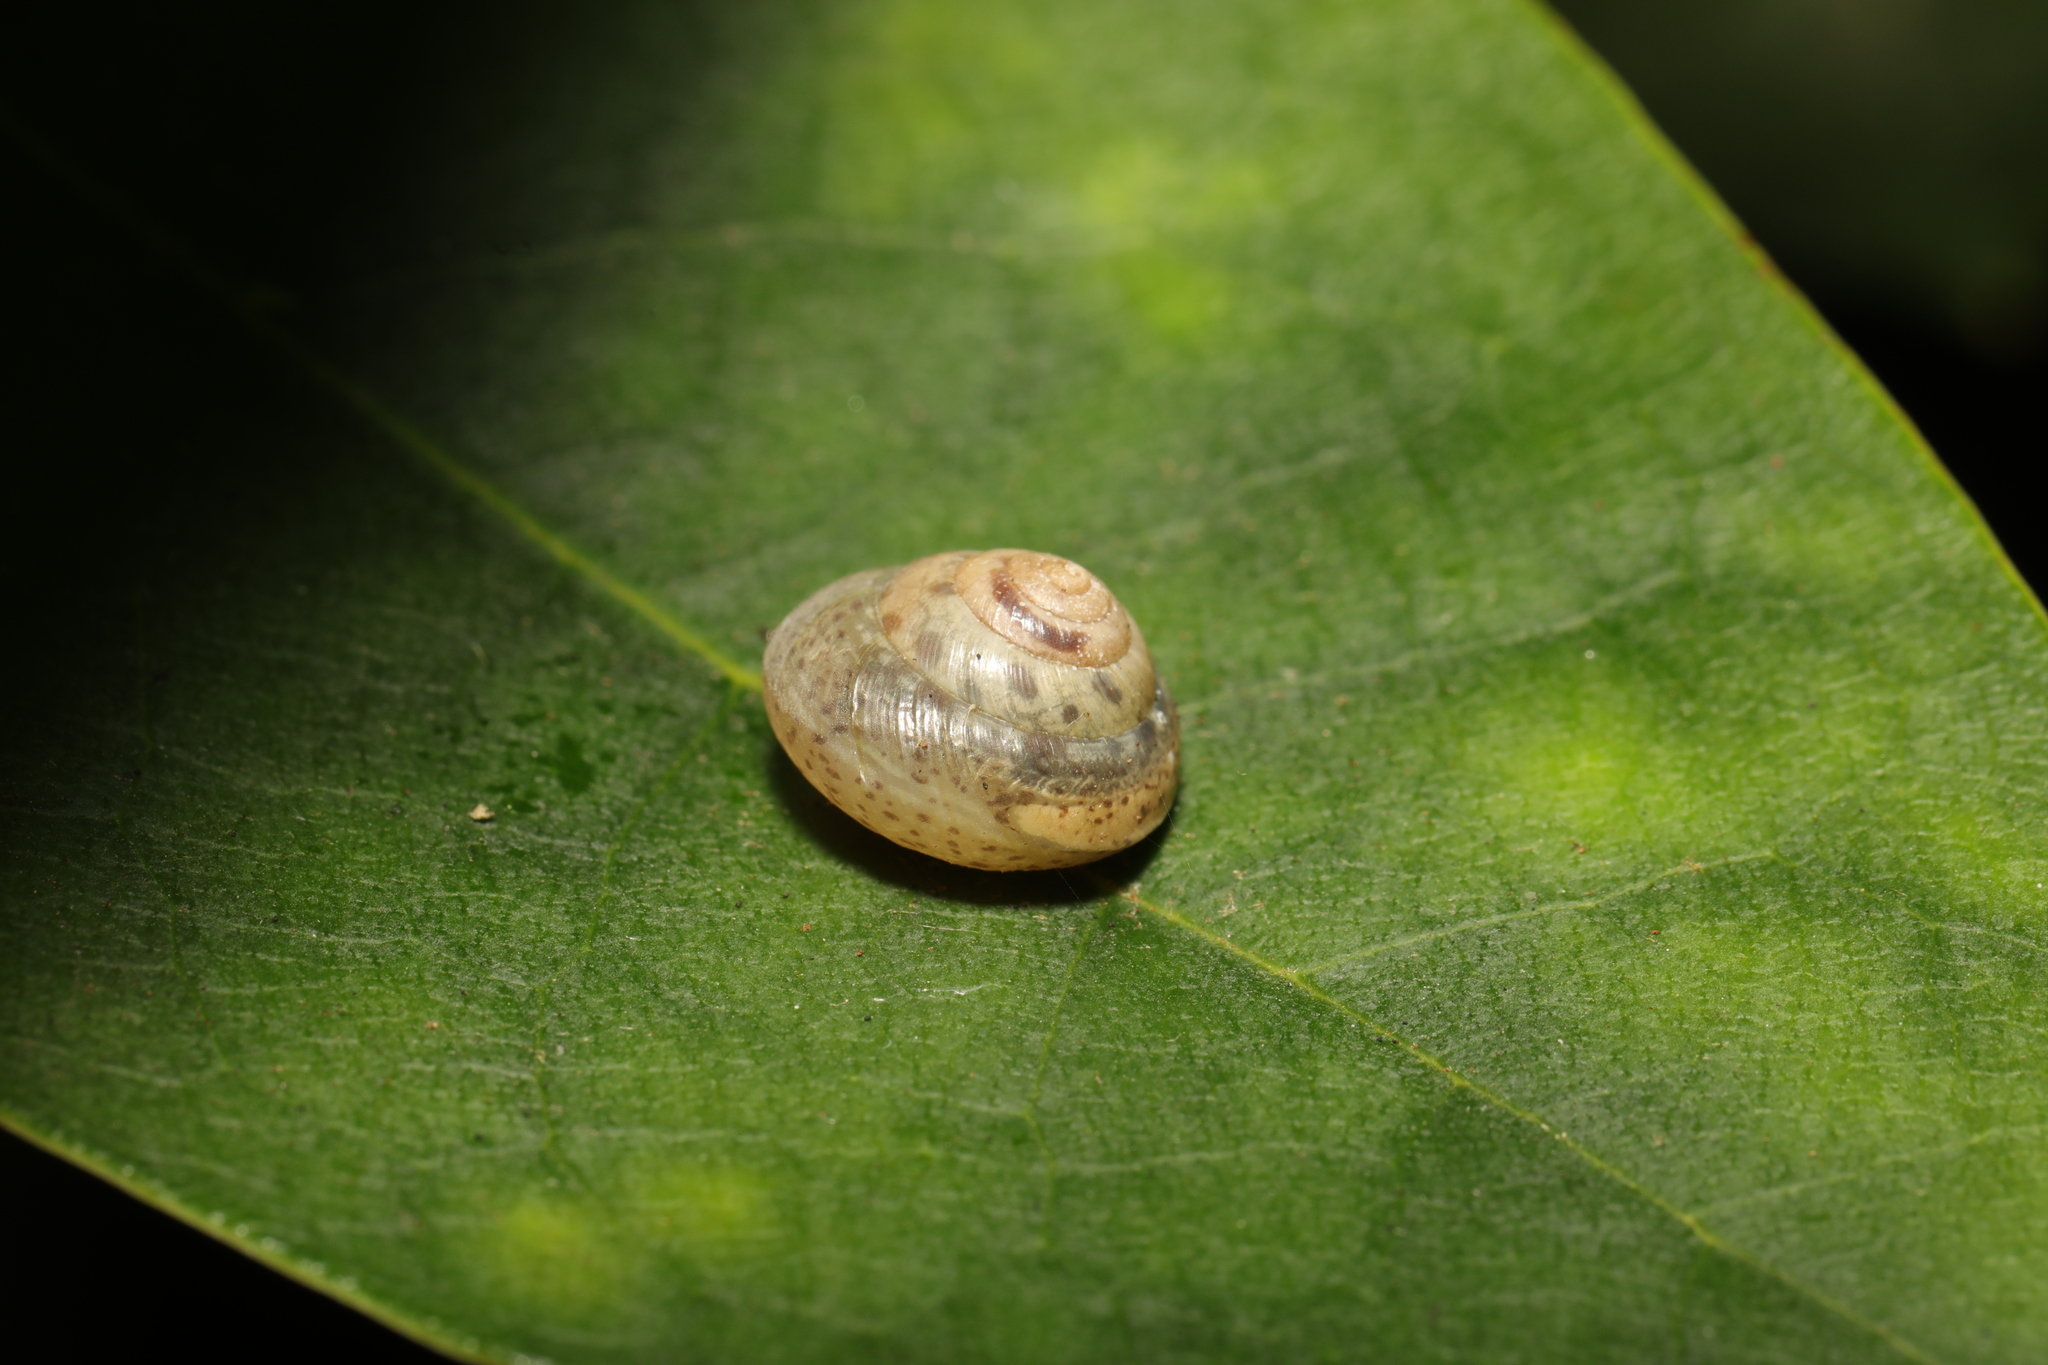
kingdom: Animalia
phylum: Mollusca
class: Gastropoda
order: Stylommatophora
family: Hygromiidae
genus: Hygromia
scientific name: Hygromia cinctella
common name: Girdled snail
